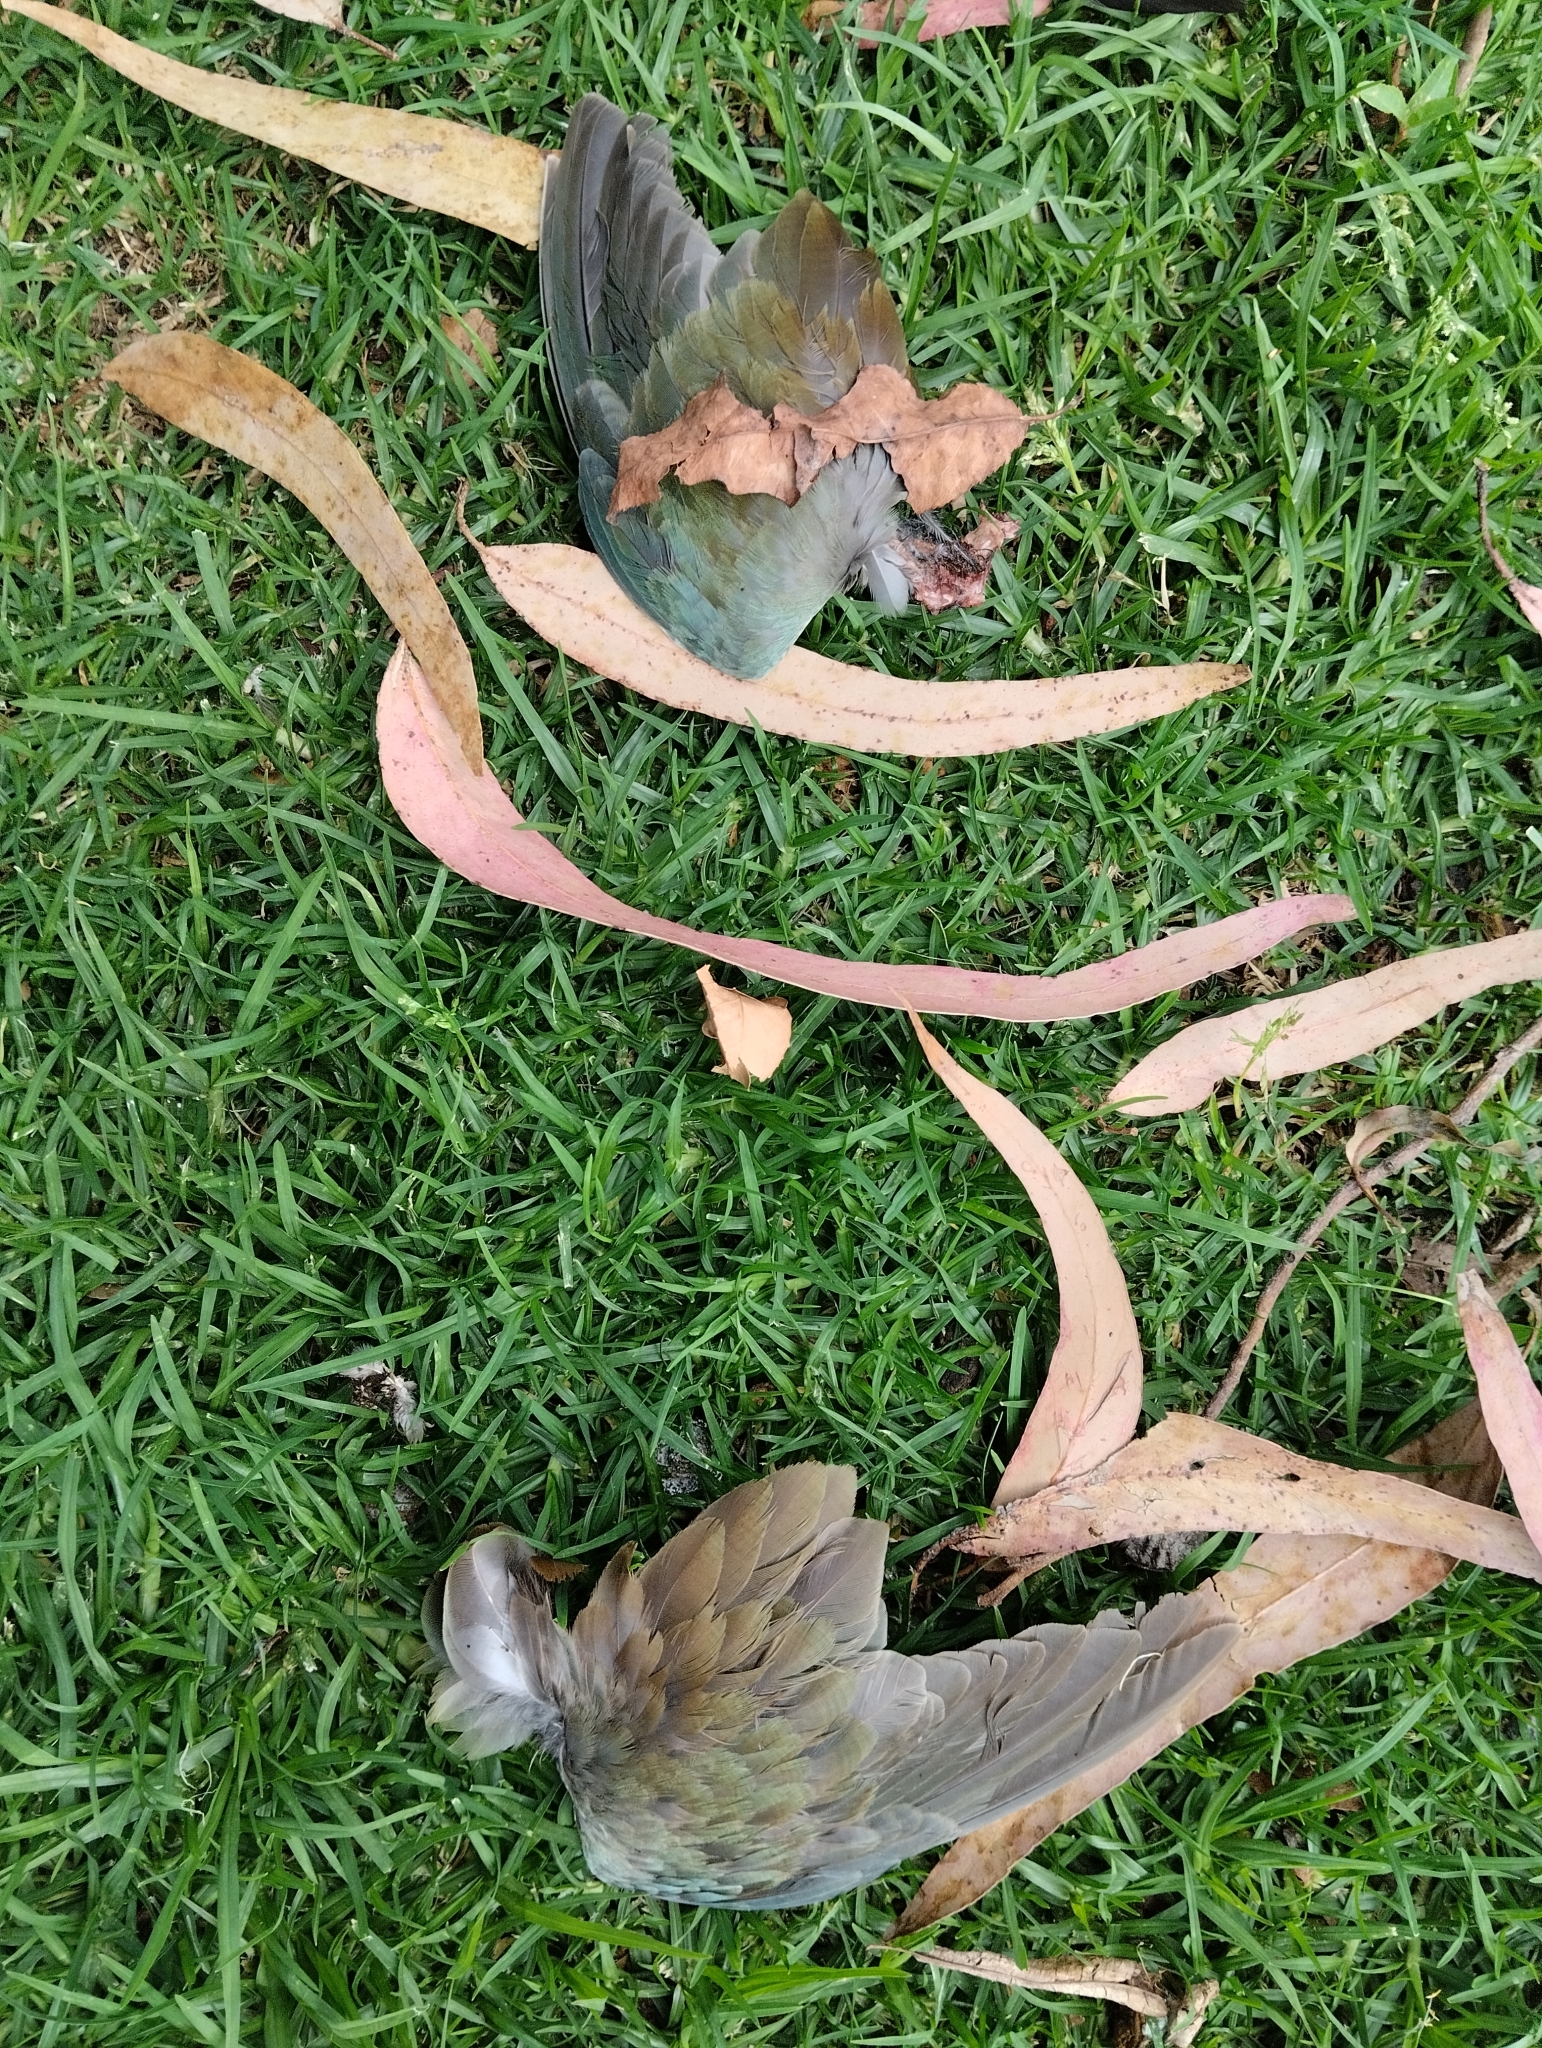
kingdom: Animalia
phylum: Chordata
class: Aves
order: Gruiformes
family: Rallidae
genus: Porphyrio
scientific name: Porphyrio martinica
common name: Purple gallinule
